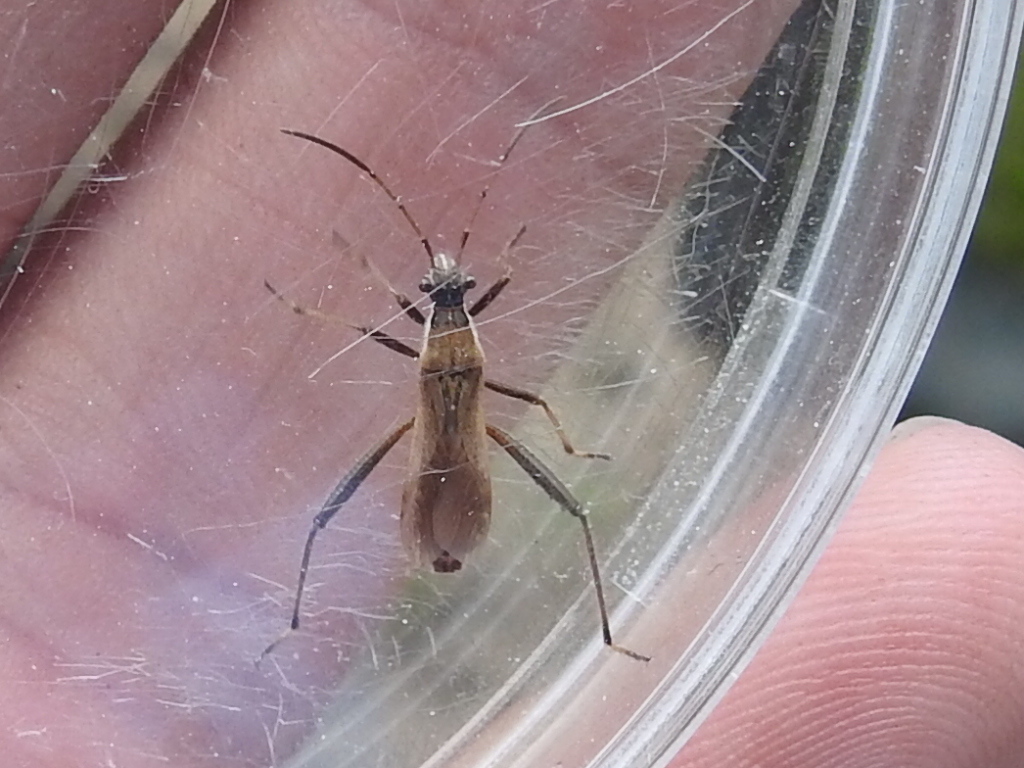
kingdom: Animalia
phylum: Arthropoda
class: Insecta
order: Hemiptera
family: Alydidae
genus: Alydus
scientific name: Alydus pilosulus
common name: Broad-headed bug
